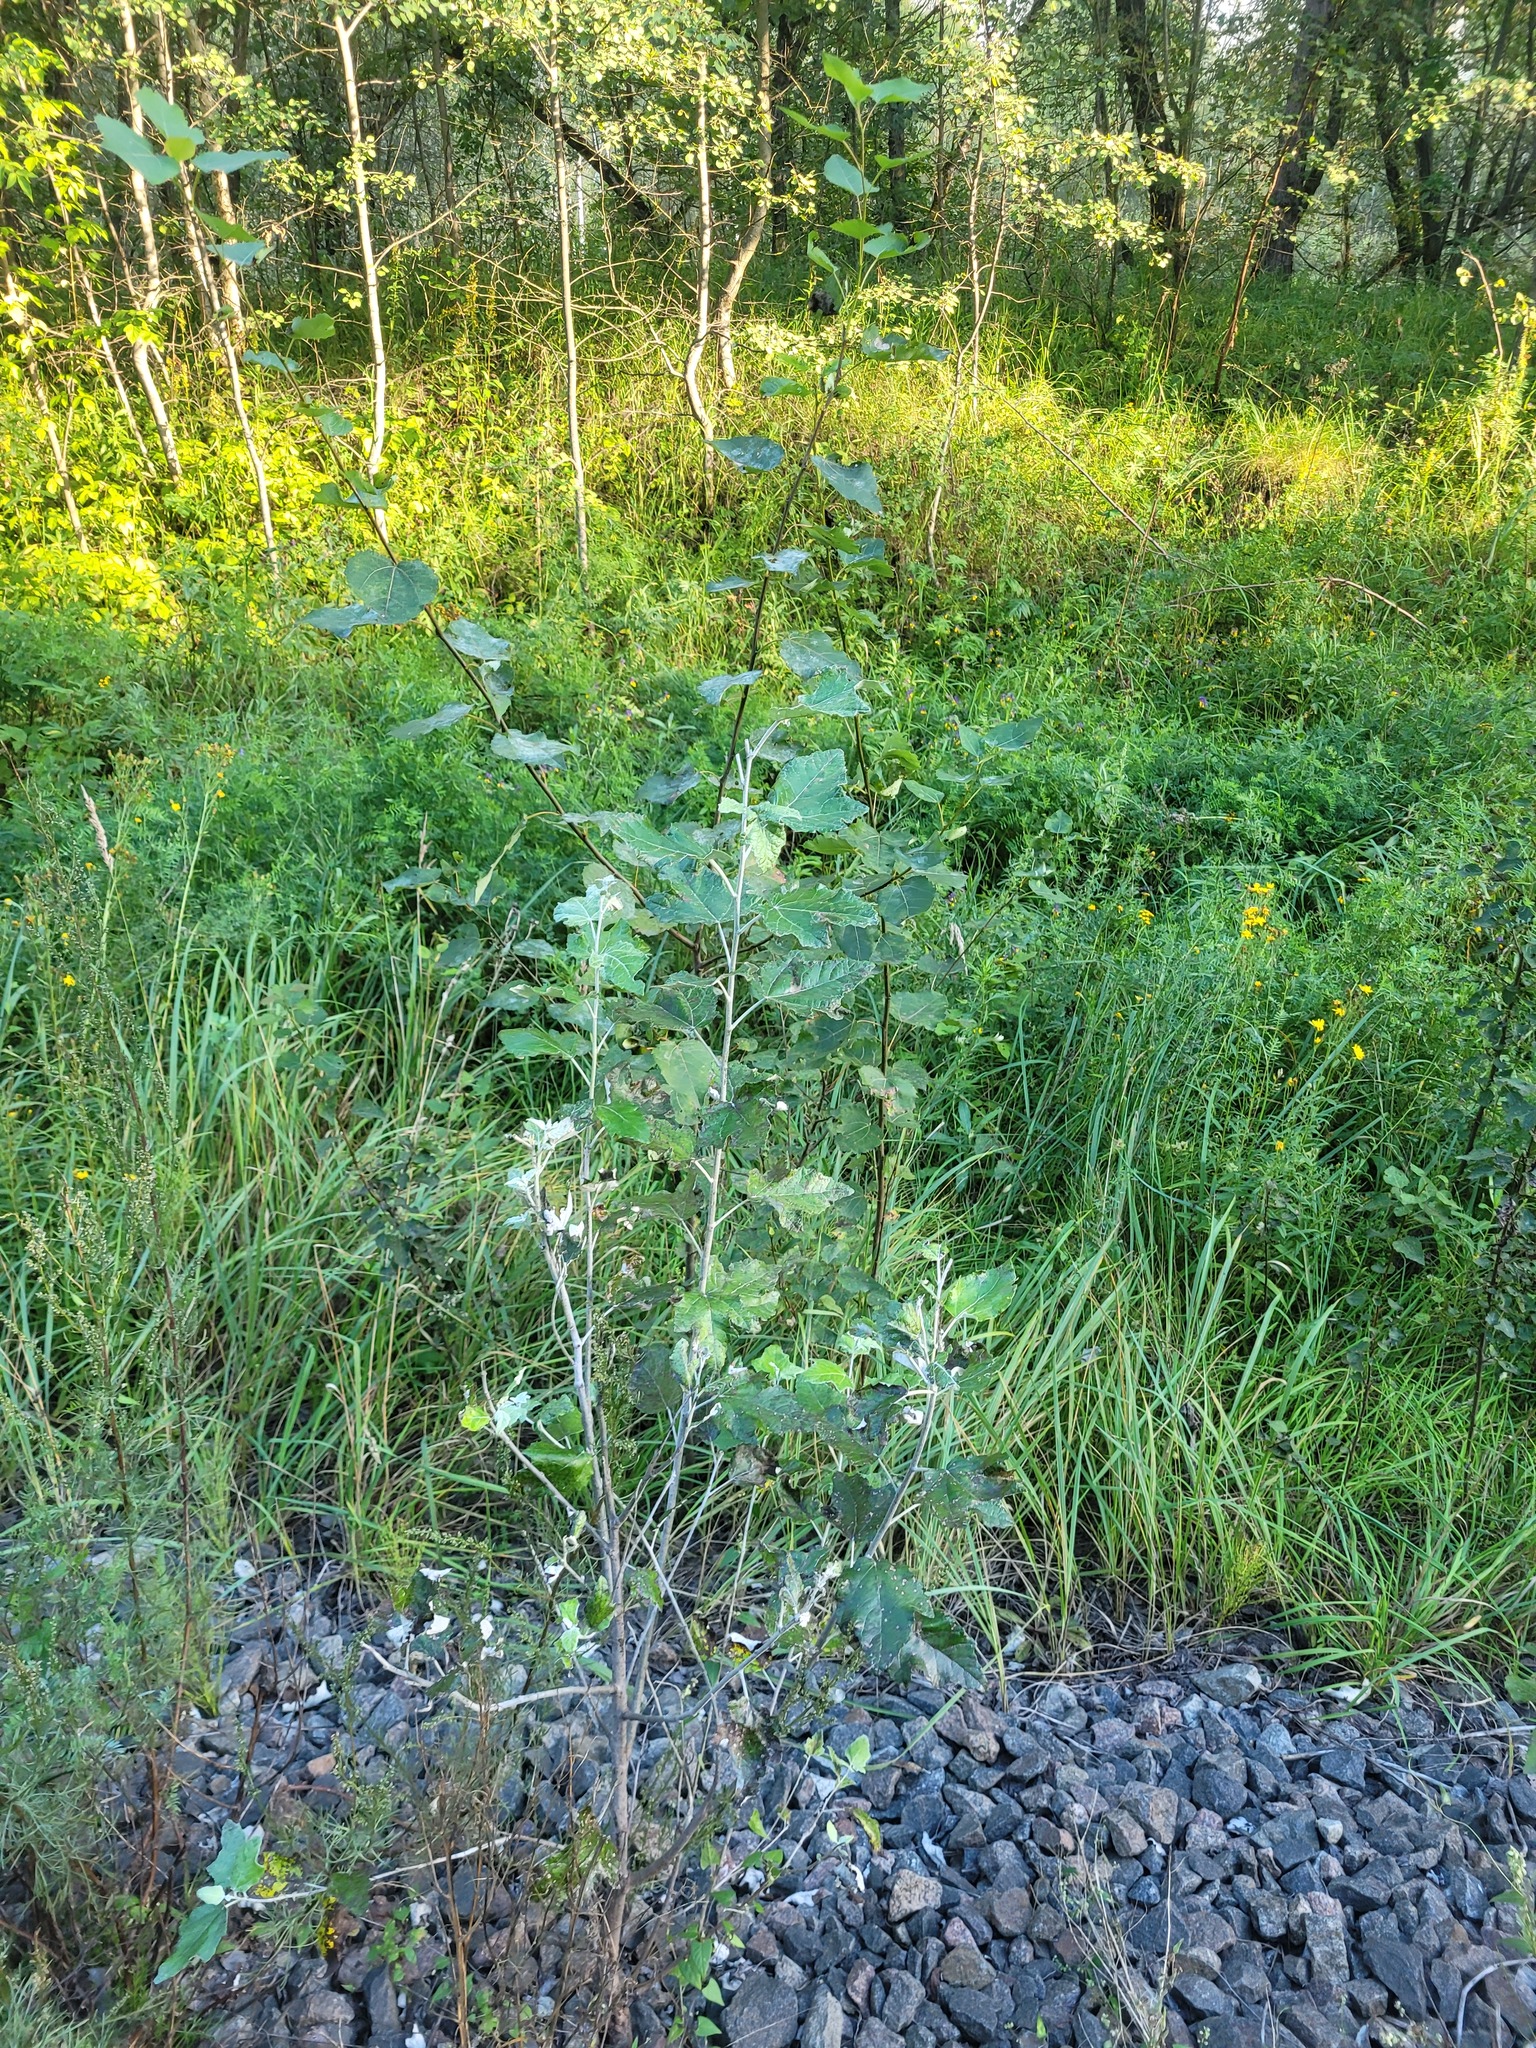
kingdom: Plantae
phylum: Tracheophyta
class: Magnoliopsida
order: Malpighiales
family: Salicaceae
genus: Populus
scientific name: Populus alba
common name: White poplar
